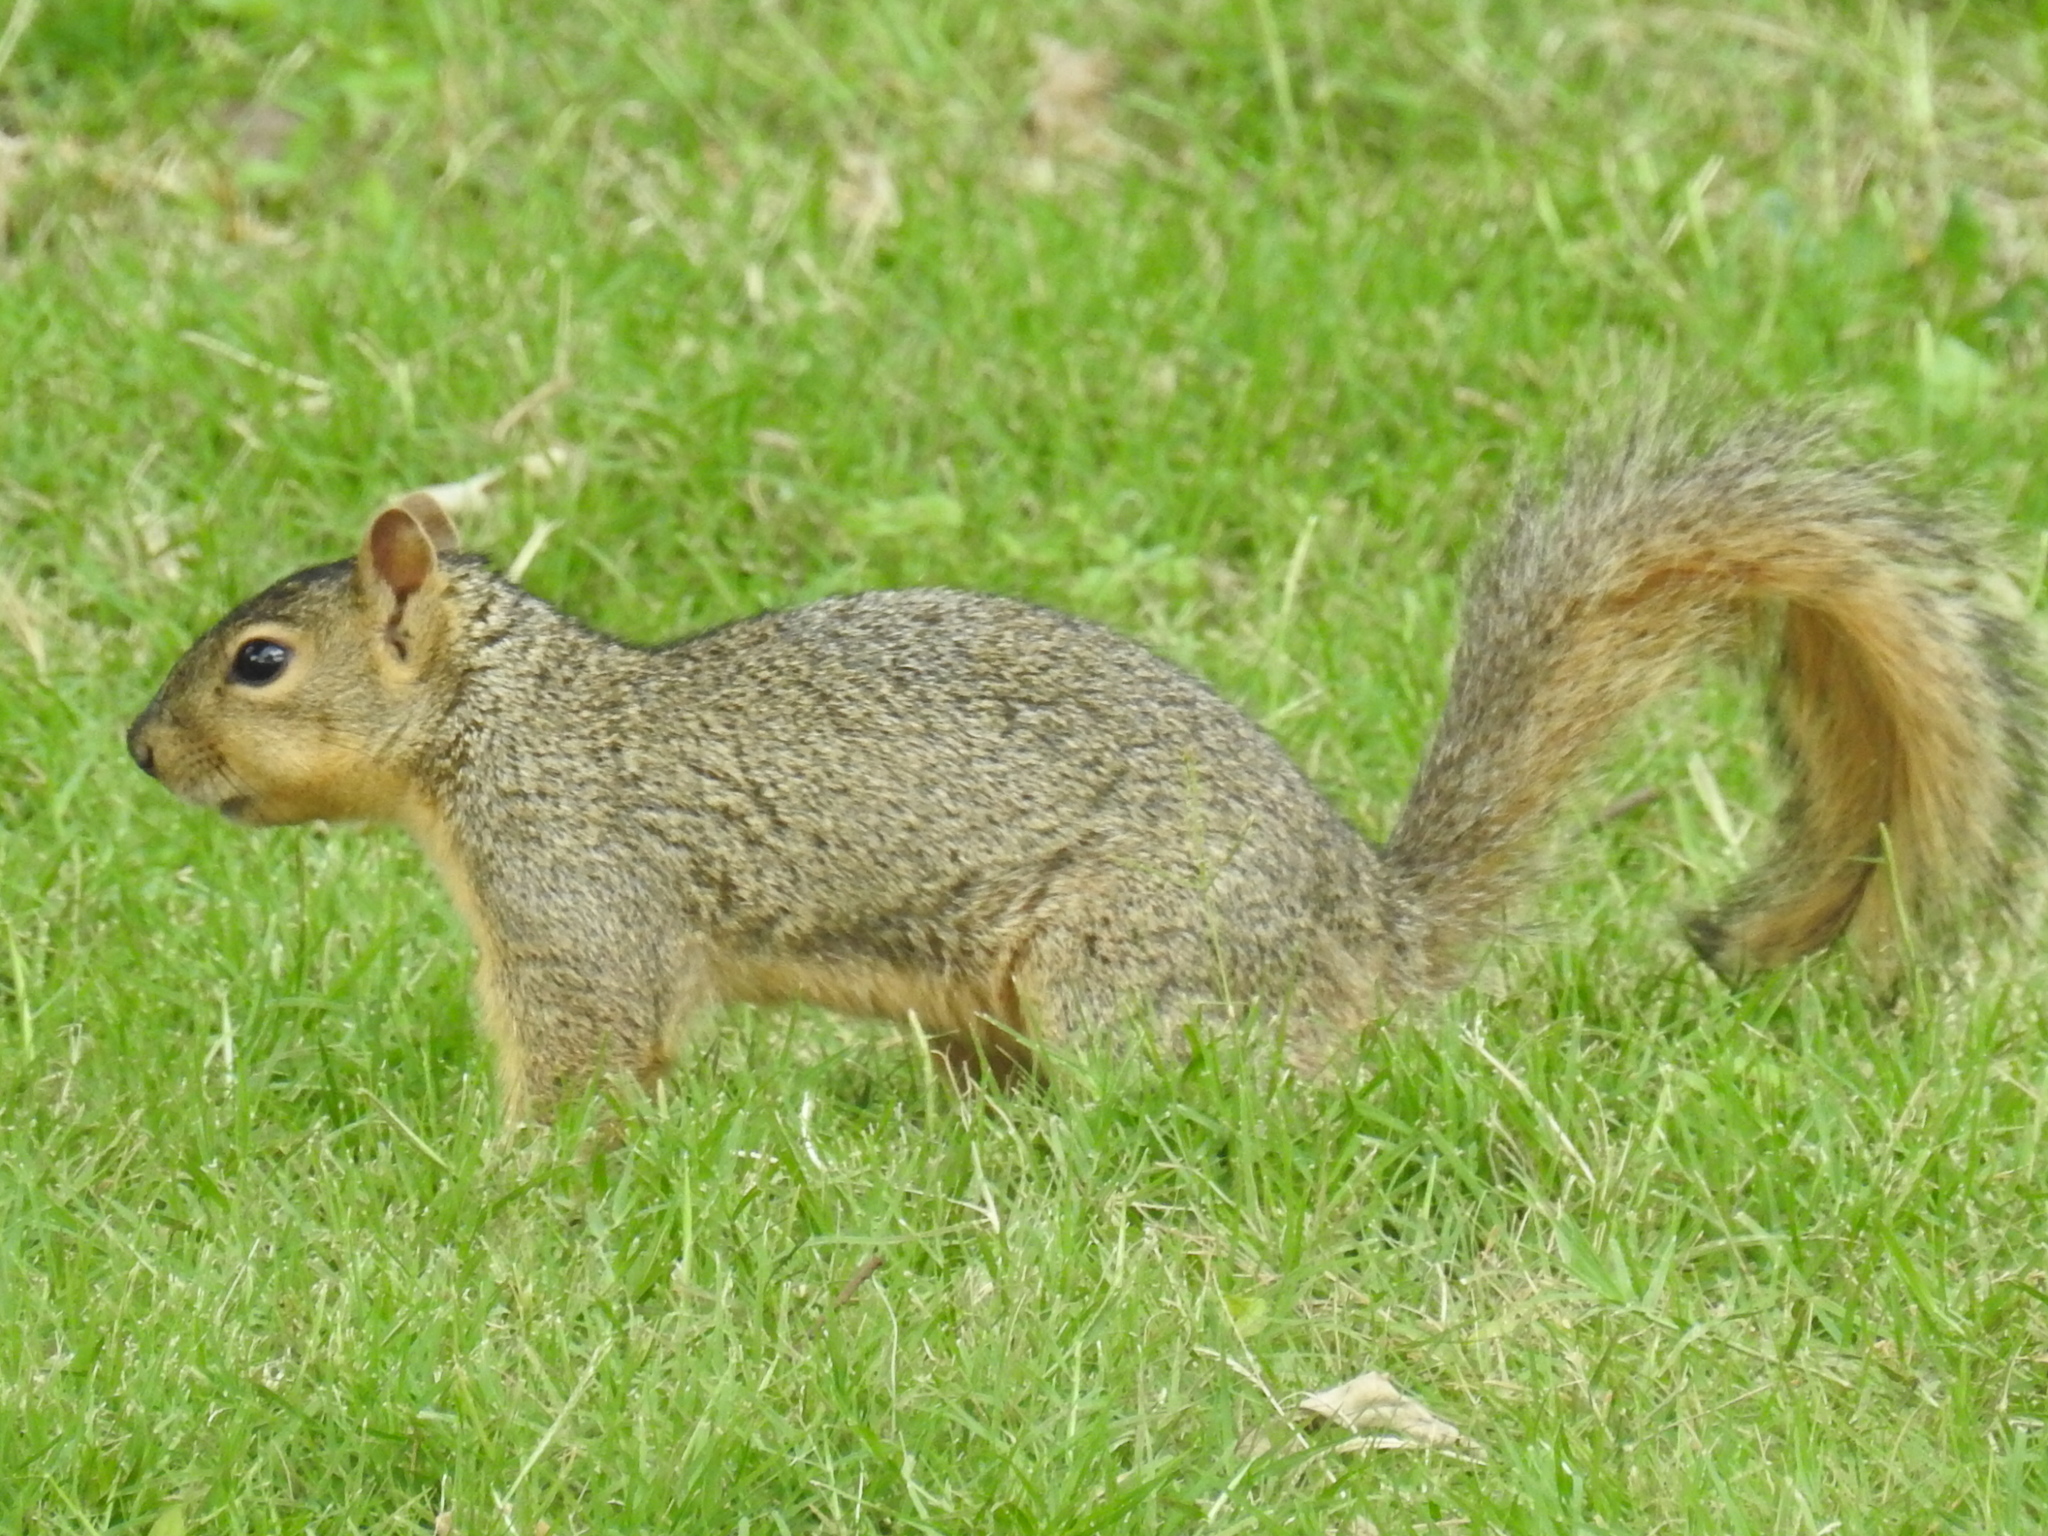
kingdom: Animalia
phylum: Chordata
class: Mammalia
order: Rodentia
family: Sciuridae
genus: Sciurus
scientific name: Sciurus niger
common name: Fox squirrel
